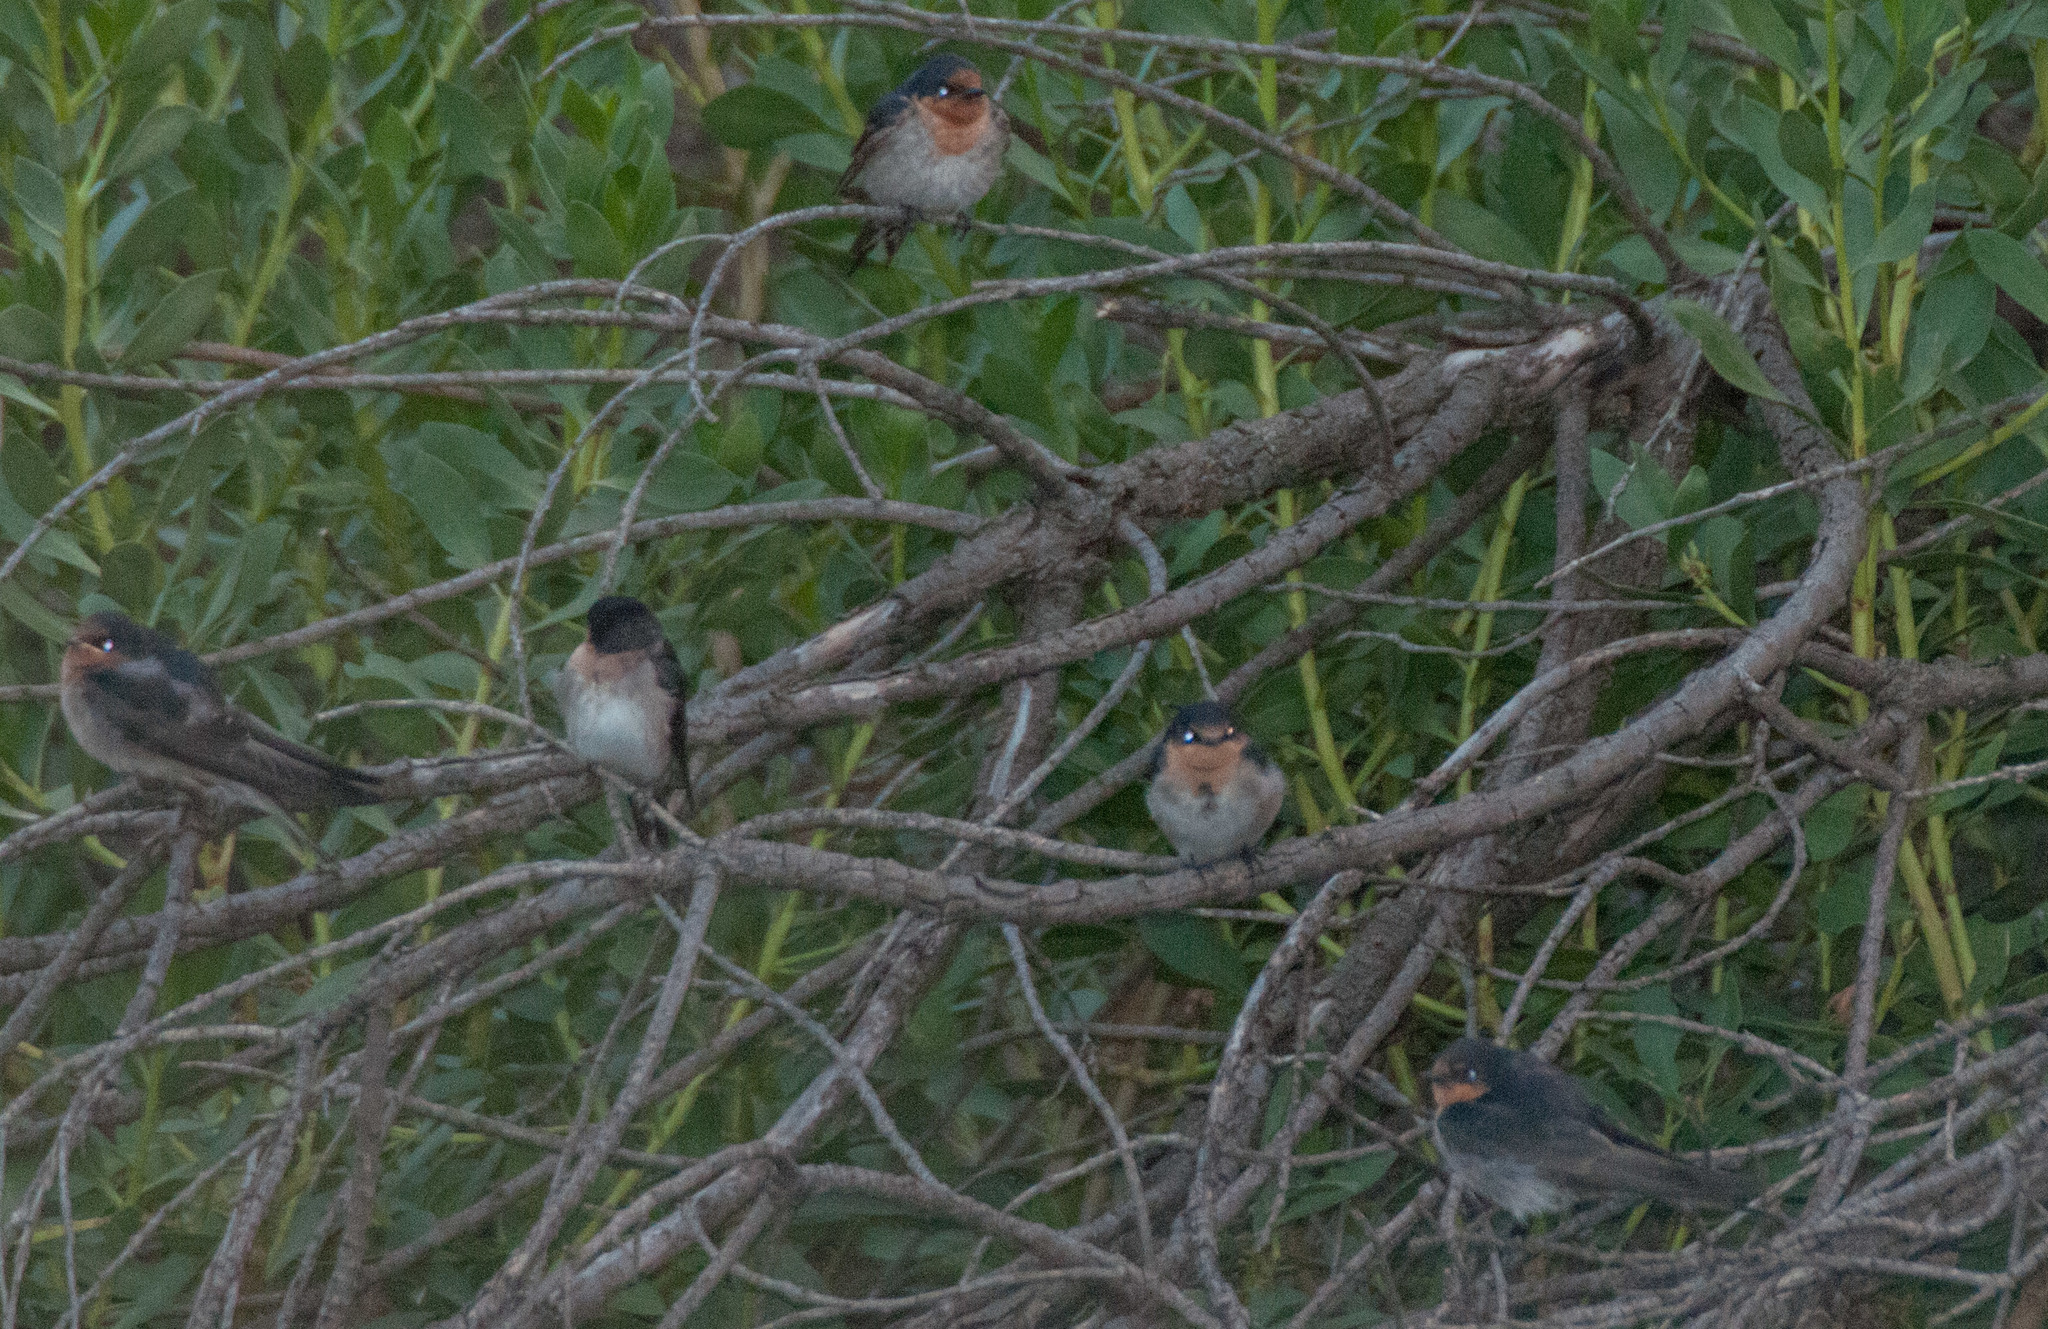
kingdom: Animalia
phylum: Chordata
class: Aves
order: Passeriformes
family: Hirundinidae
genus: Hirundo
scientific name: Hirundo neoxena
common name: Welcome swallow
